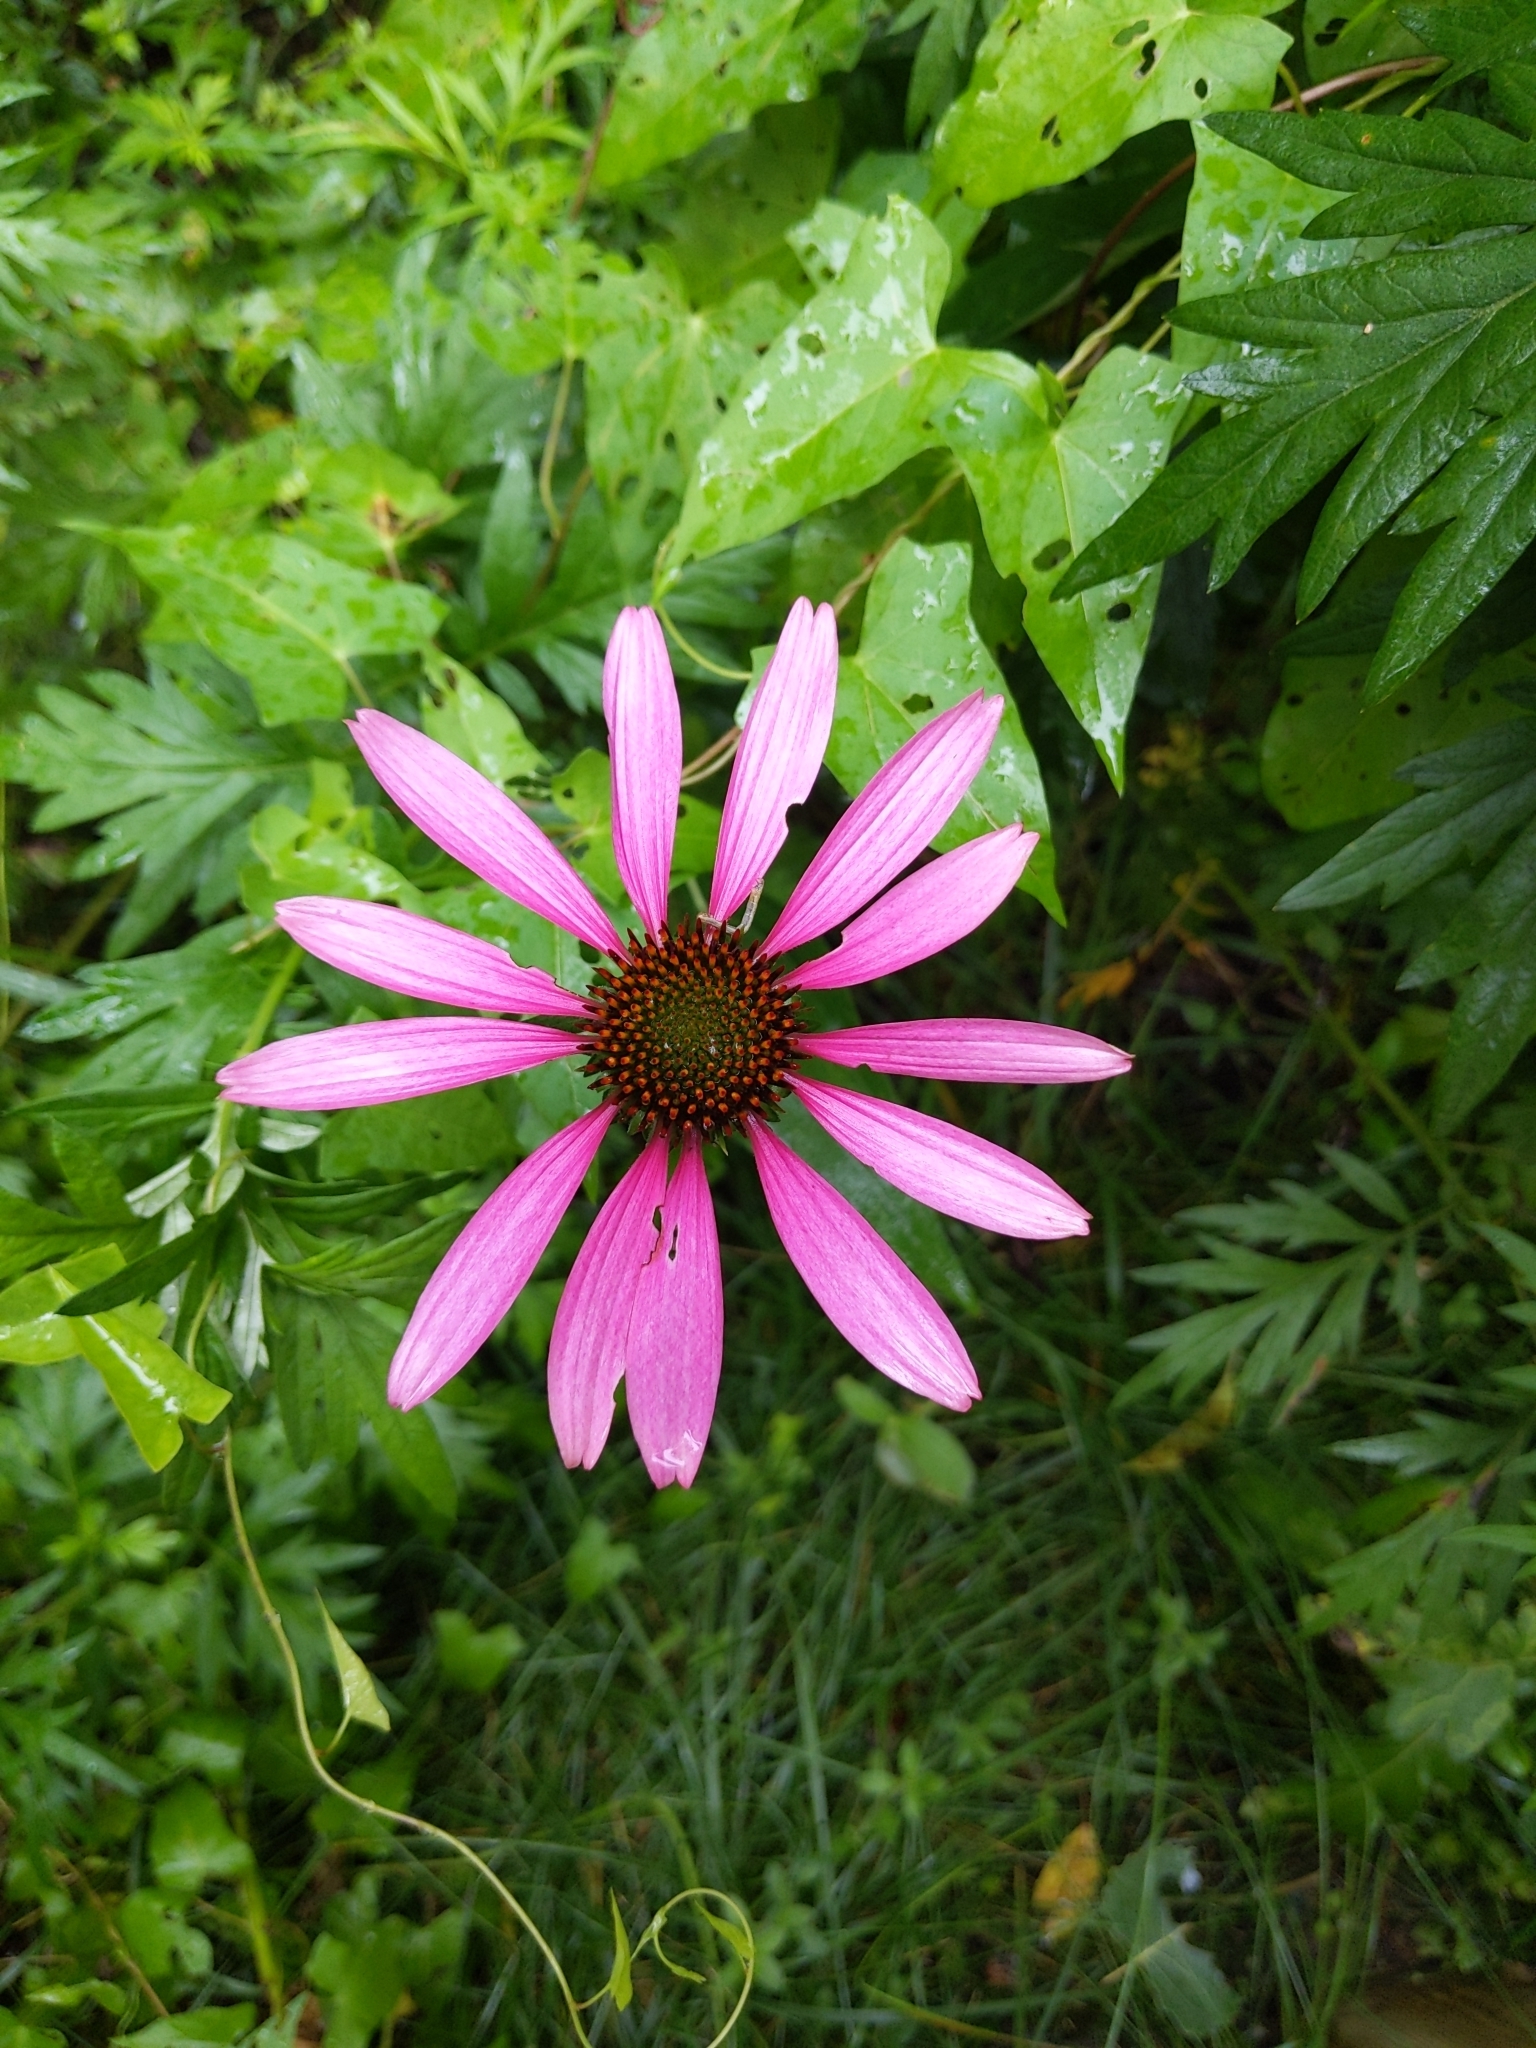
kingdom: Plantae
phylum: Tracheophyta
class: Magnoliopsida
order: Asterales
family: Asteraceae
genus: Echinacea
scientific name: Echinacea purpurea
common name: Broad-leaved purple coneflower
